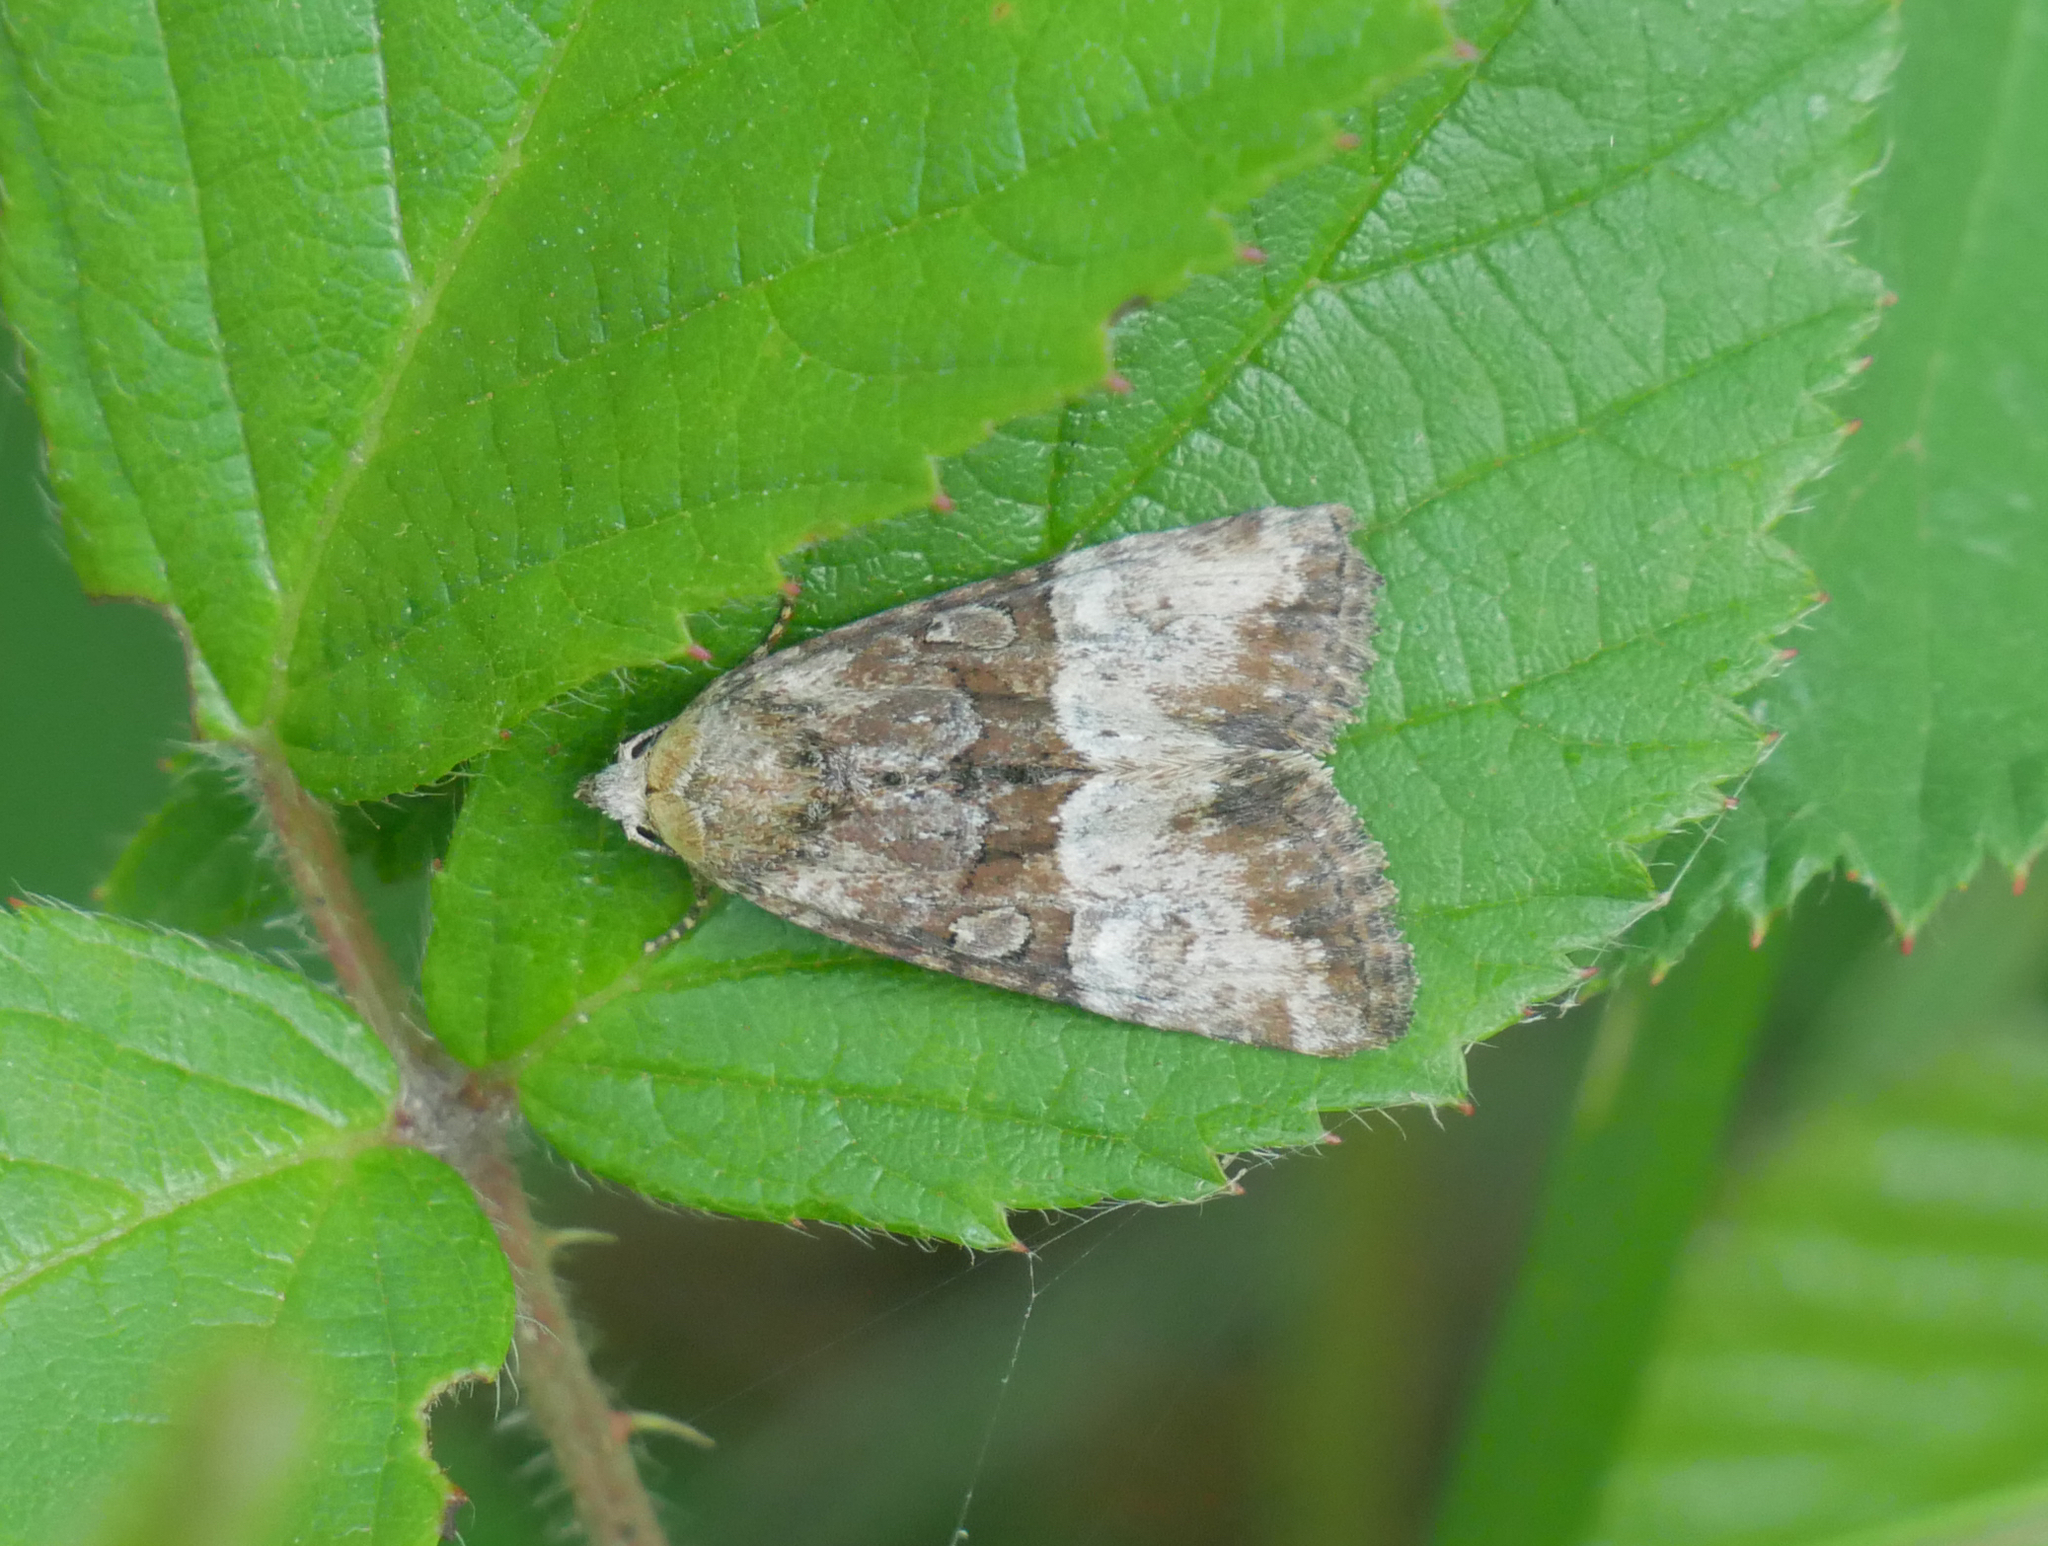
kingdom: Animalia
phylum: Arthropoda
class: Insecta
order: Lepidoptera
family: Noctuidae
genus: Mesoligia
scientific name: Mesoligia furuncula
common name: Cloaked minor
